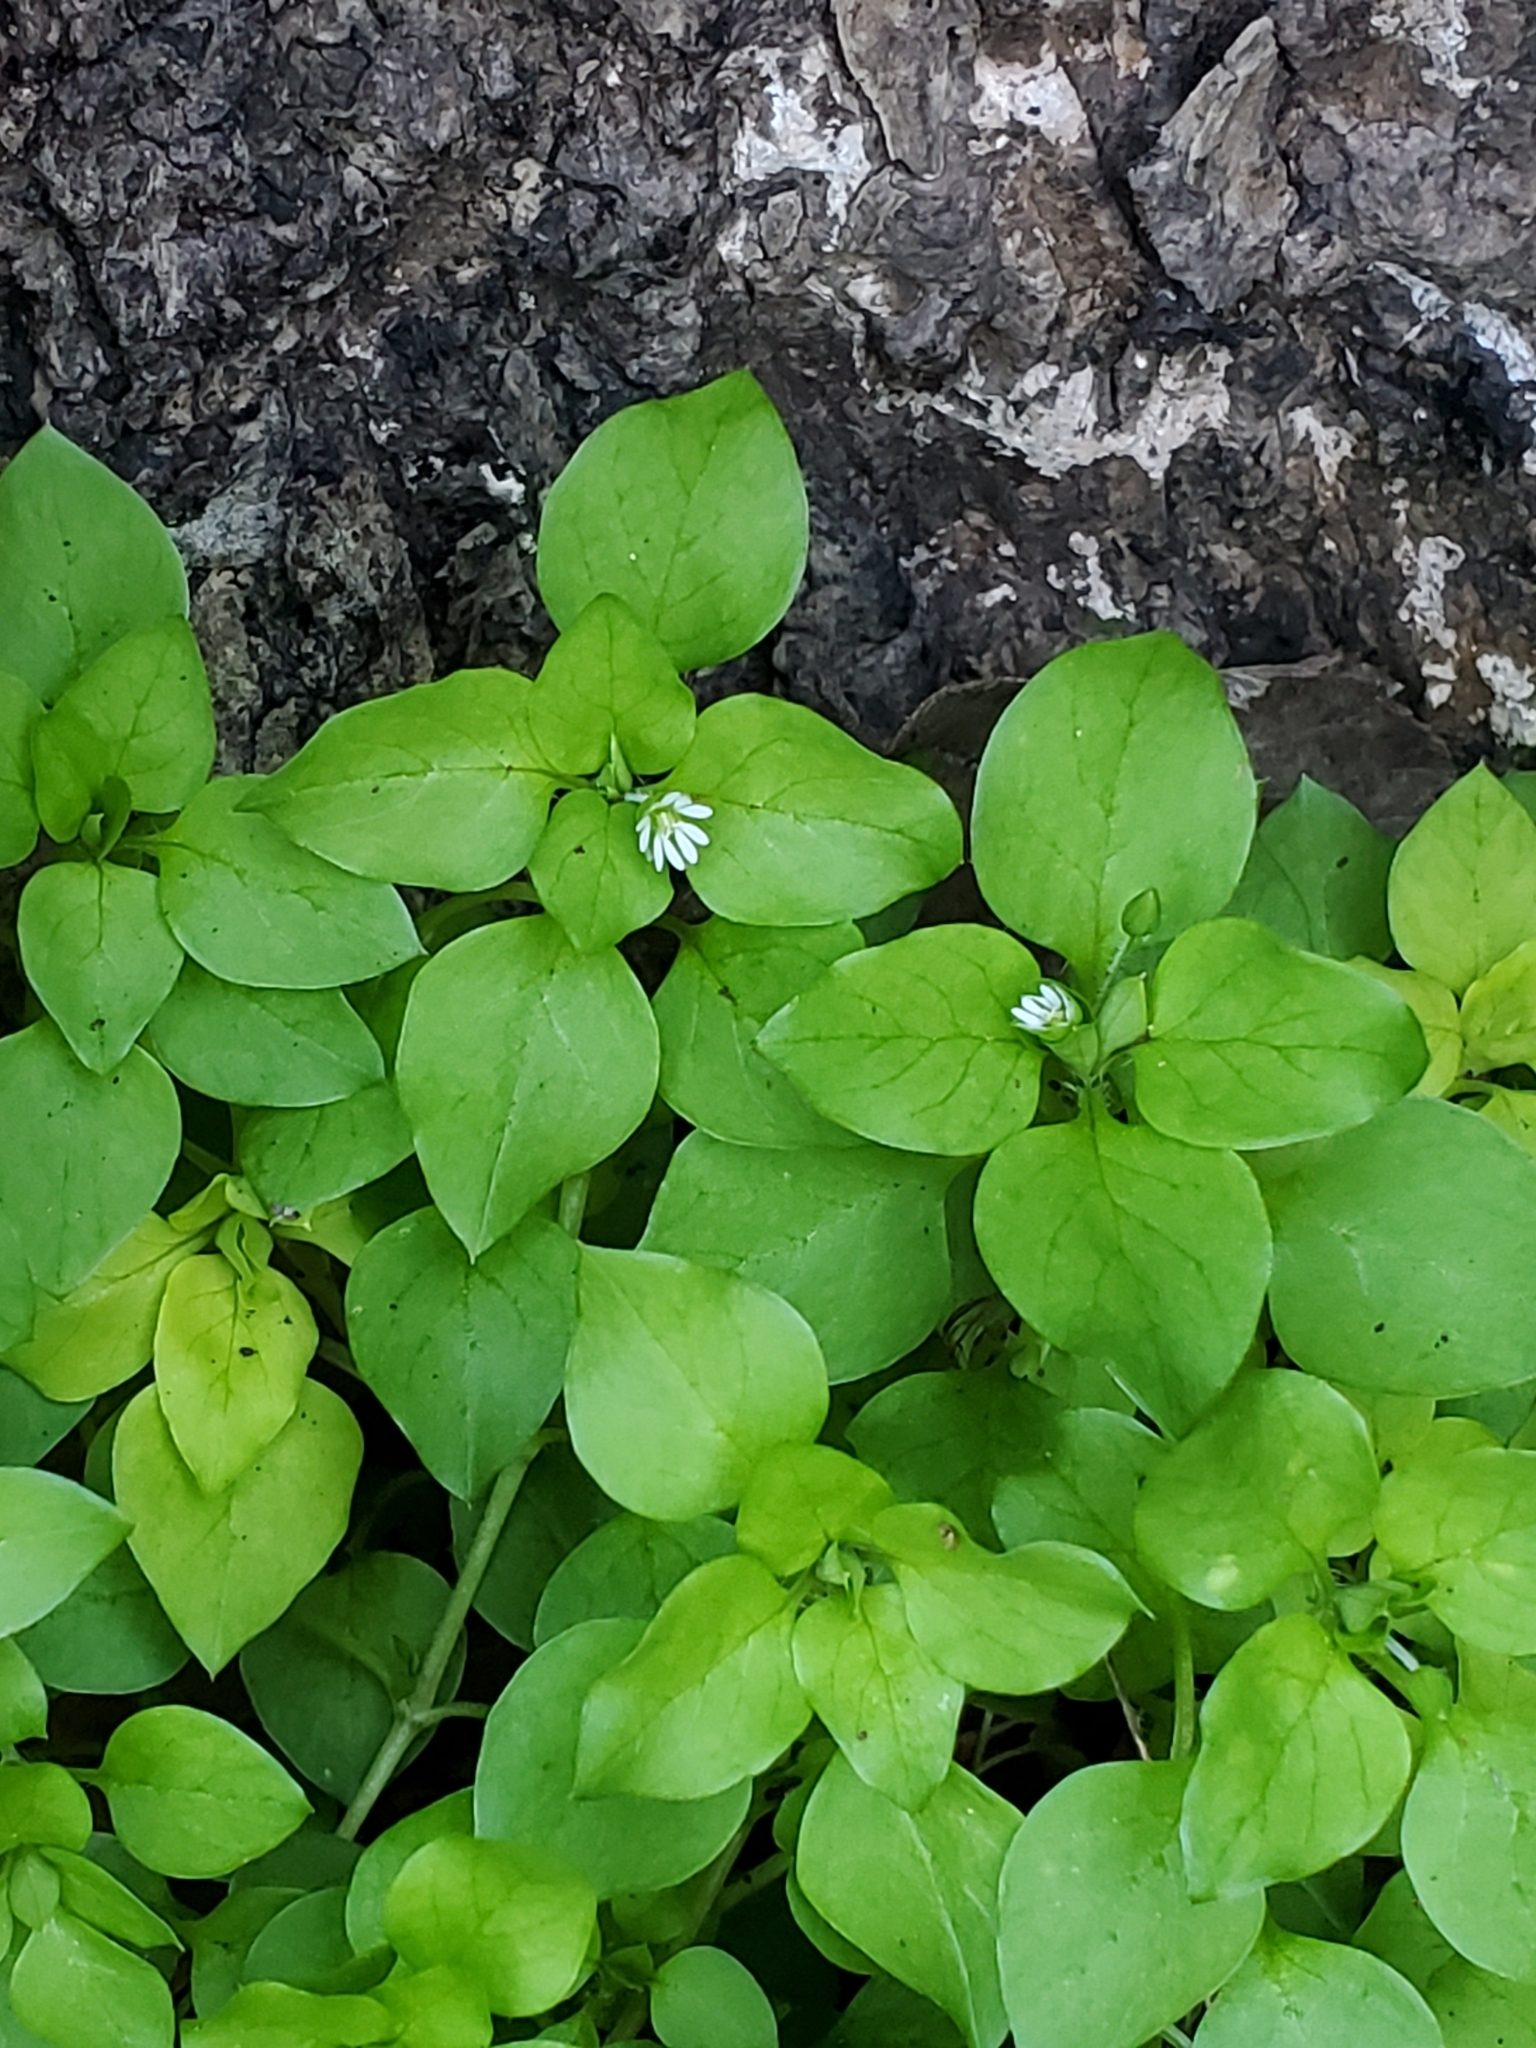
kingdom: Plantae
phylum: Tracheophyta
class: Magnoliopsida
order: Caryophyllales
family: Caryophyllaceae
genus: Stellaria
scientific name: Stellaria media
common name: Common chickweed
